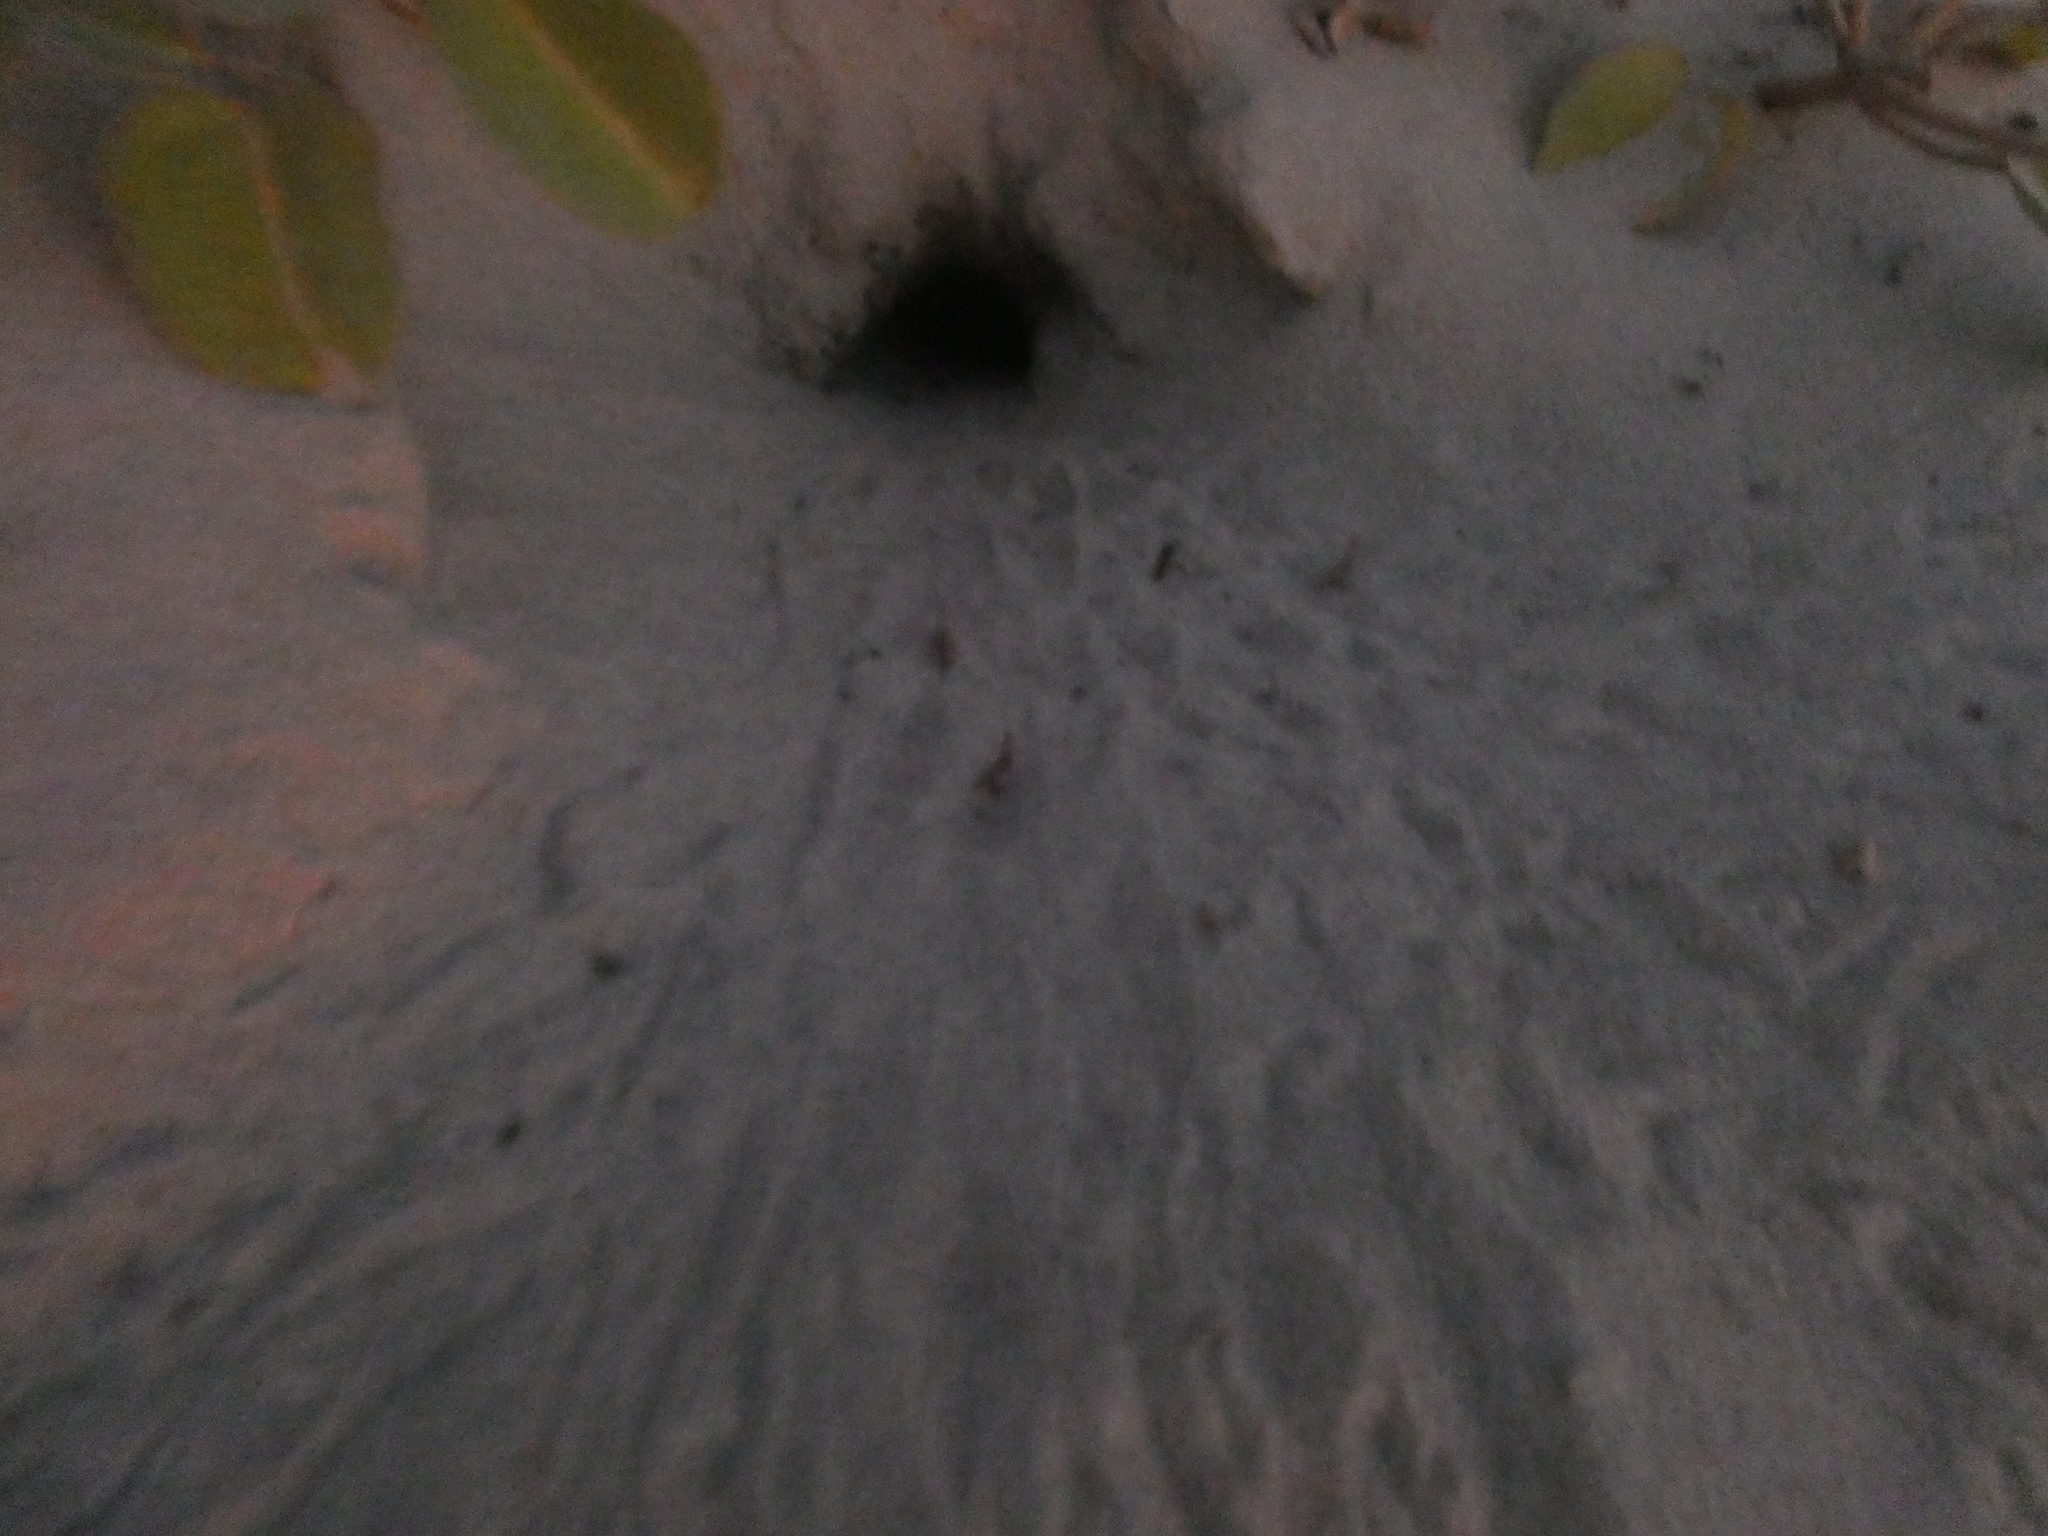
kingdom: Animalia
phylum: Arthropoda
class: Malacostraca
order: Decapoda
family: Ocypodidae
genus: Ocypode
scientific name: Ocypode quadrata
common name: Ghost crab
